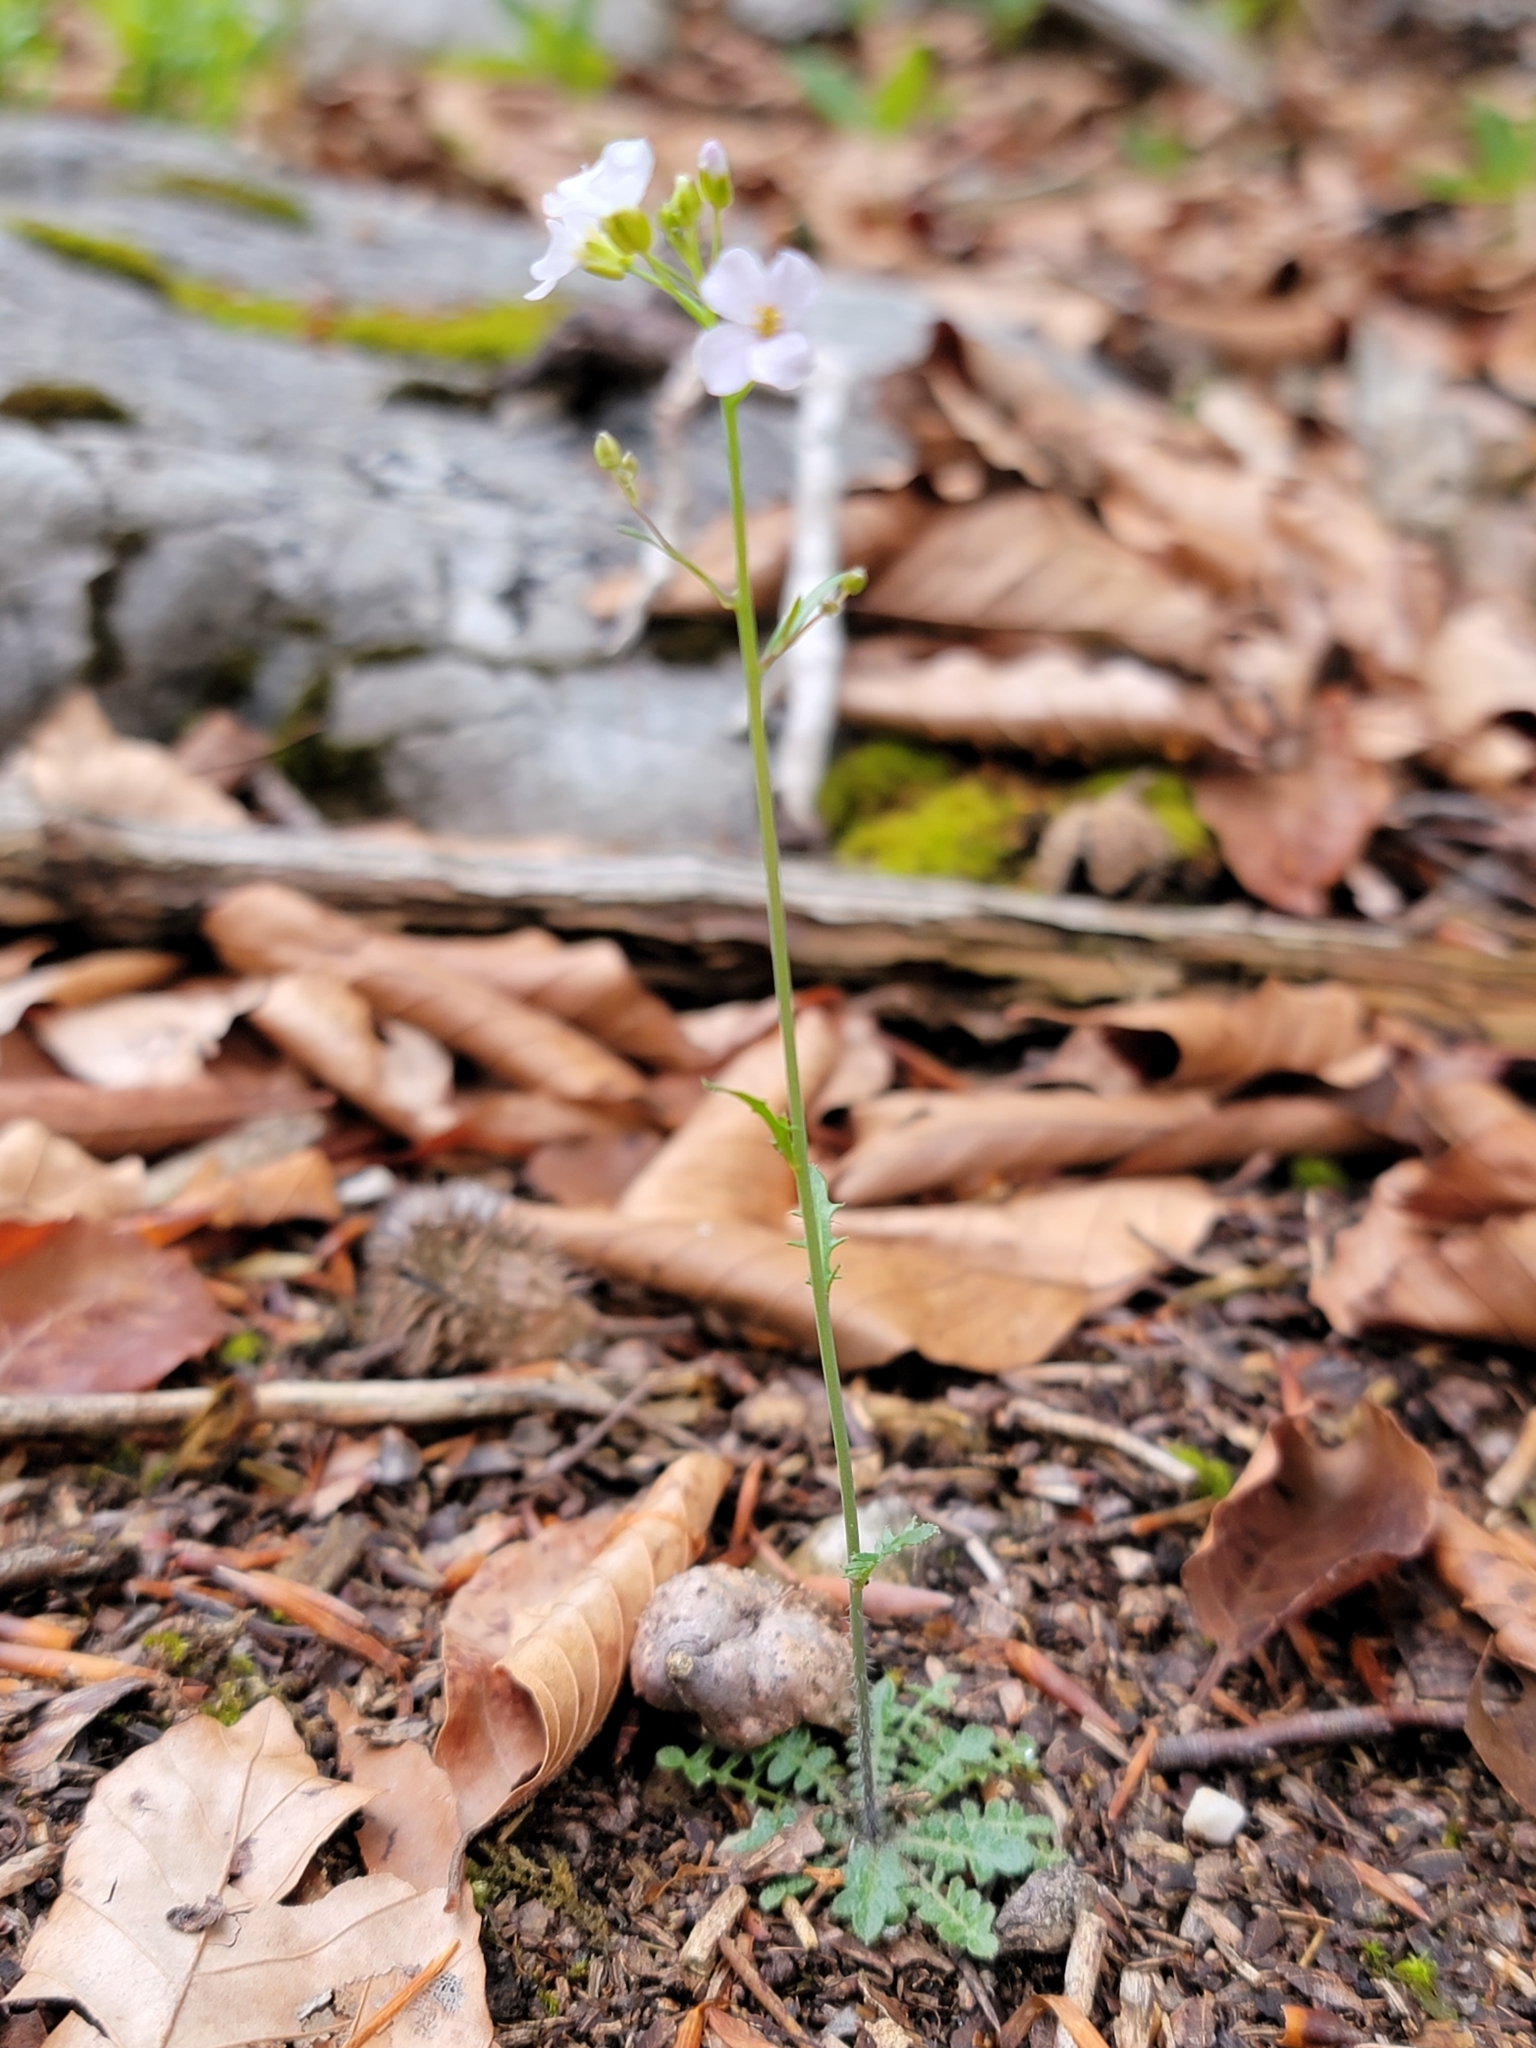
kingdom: Plantae
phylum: Tracheophyta
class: Magnoliopsida
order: Brassicales
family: Brassicaceae
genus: Arabidopsis
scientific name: Arabidopsis arenosa
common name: Sand rock-cress
